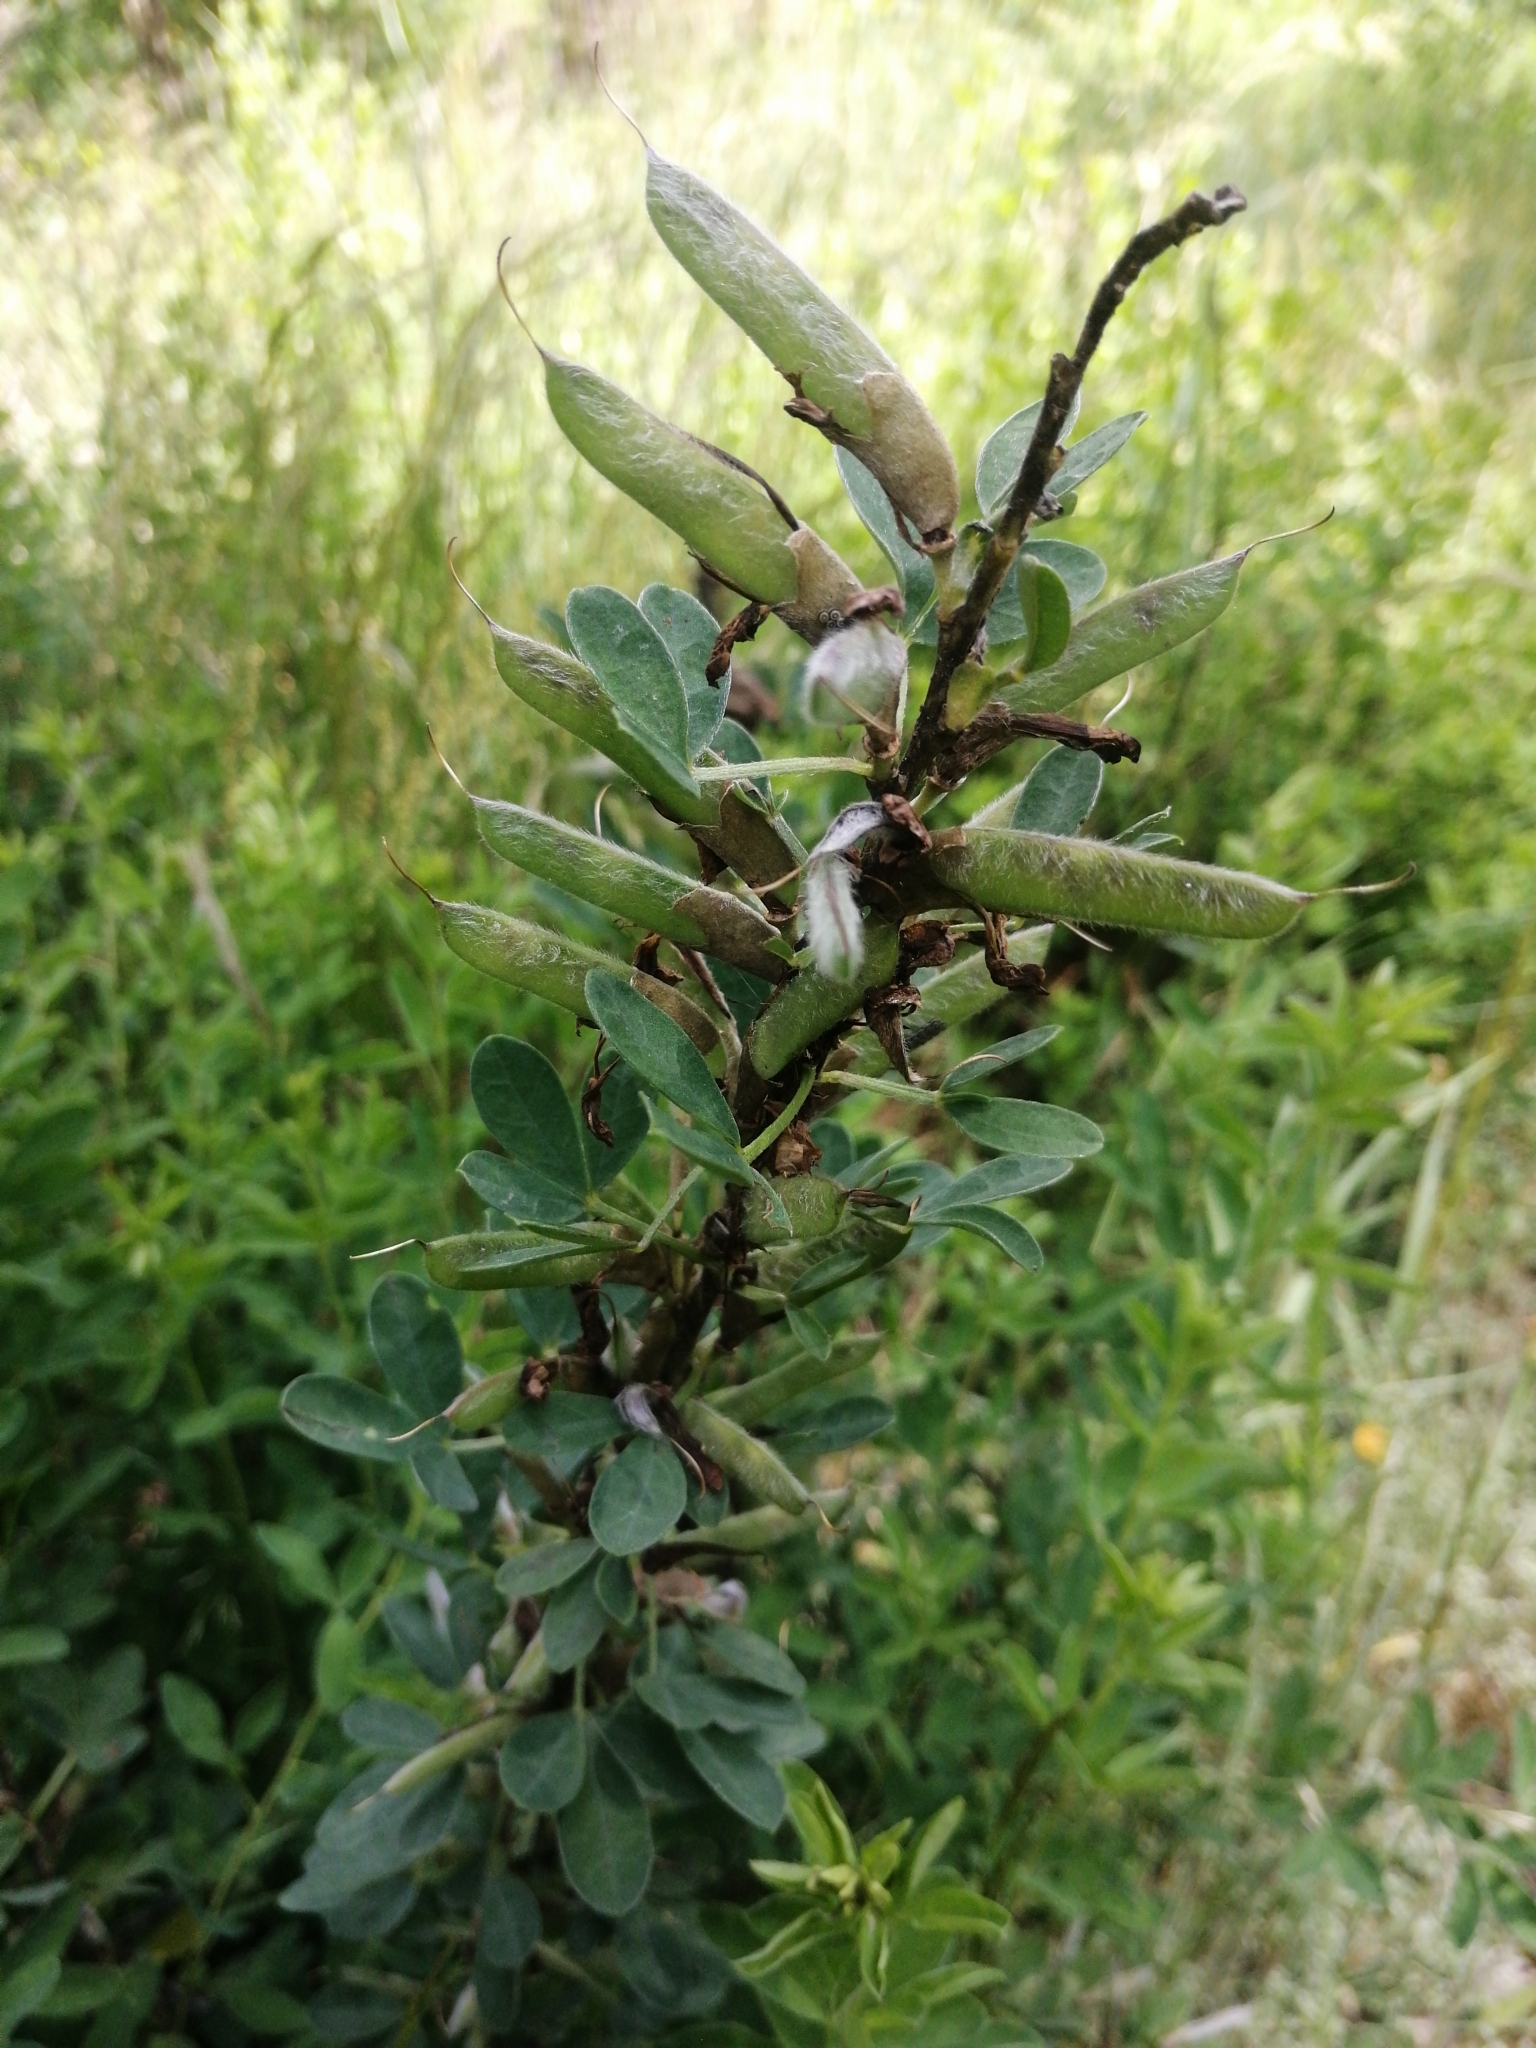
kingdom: Plantae
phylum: Tracheophyta
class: Magnoliopsida
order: Fabales
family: Fabaceae
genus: Chamaecytisus
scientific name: Chamaecytisus ratisbonensis
